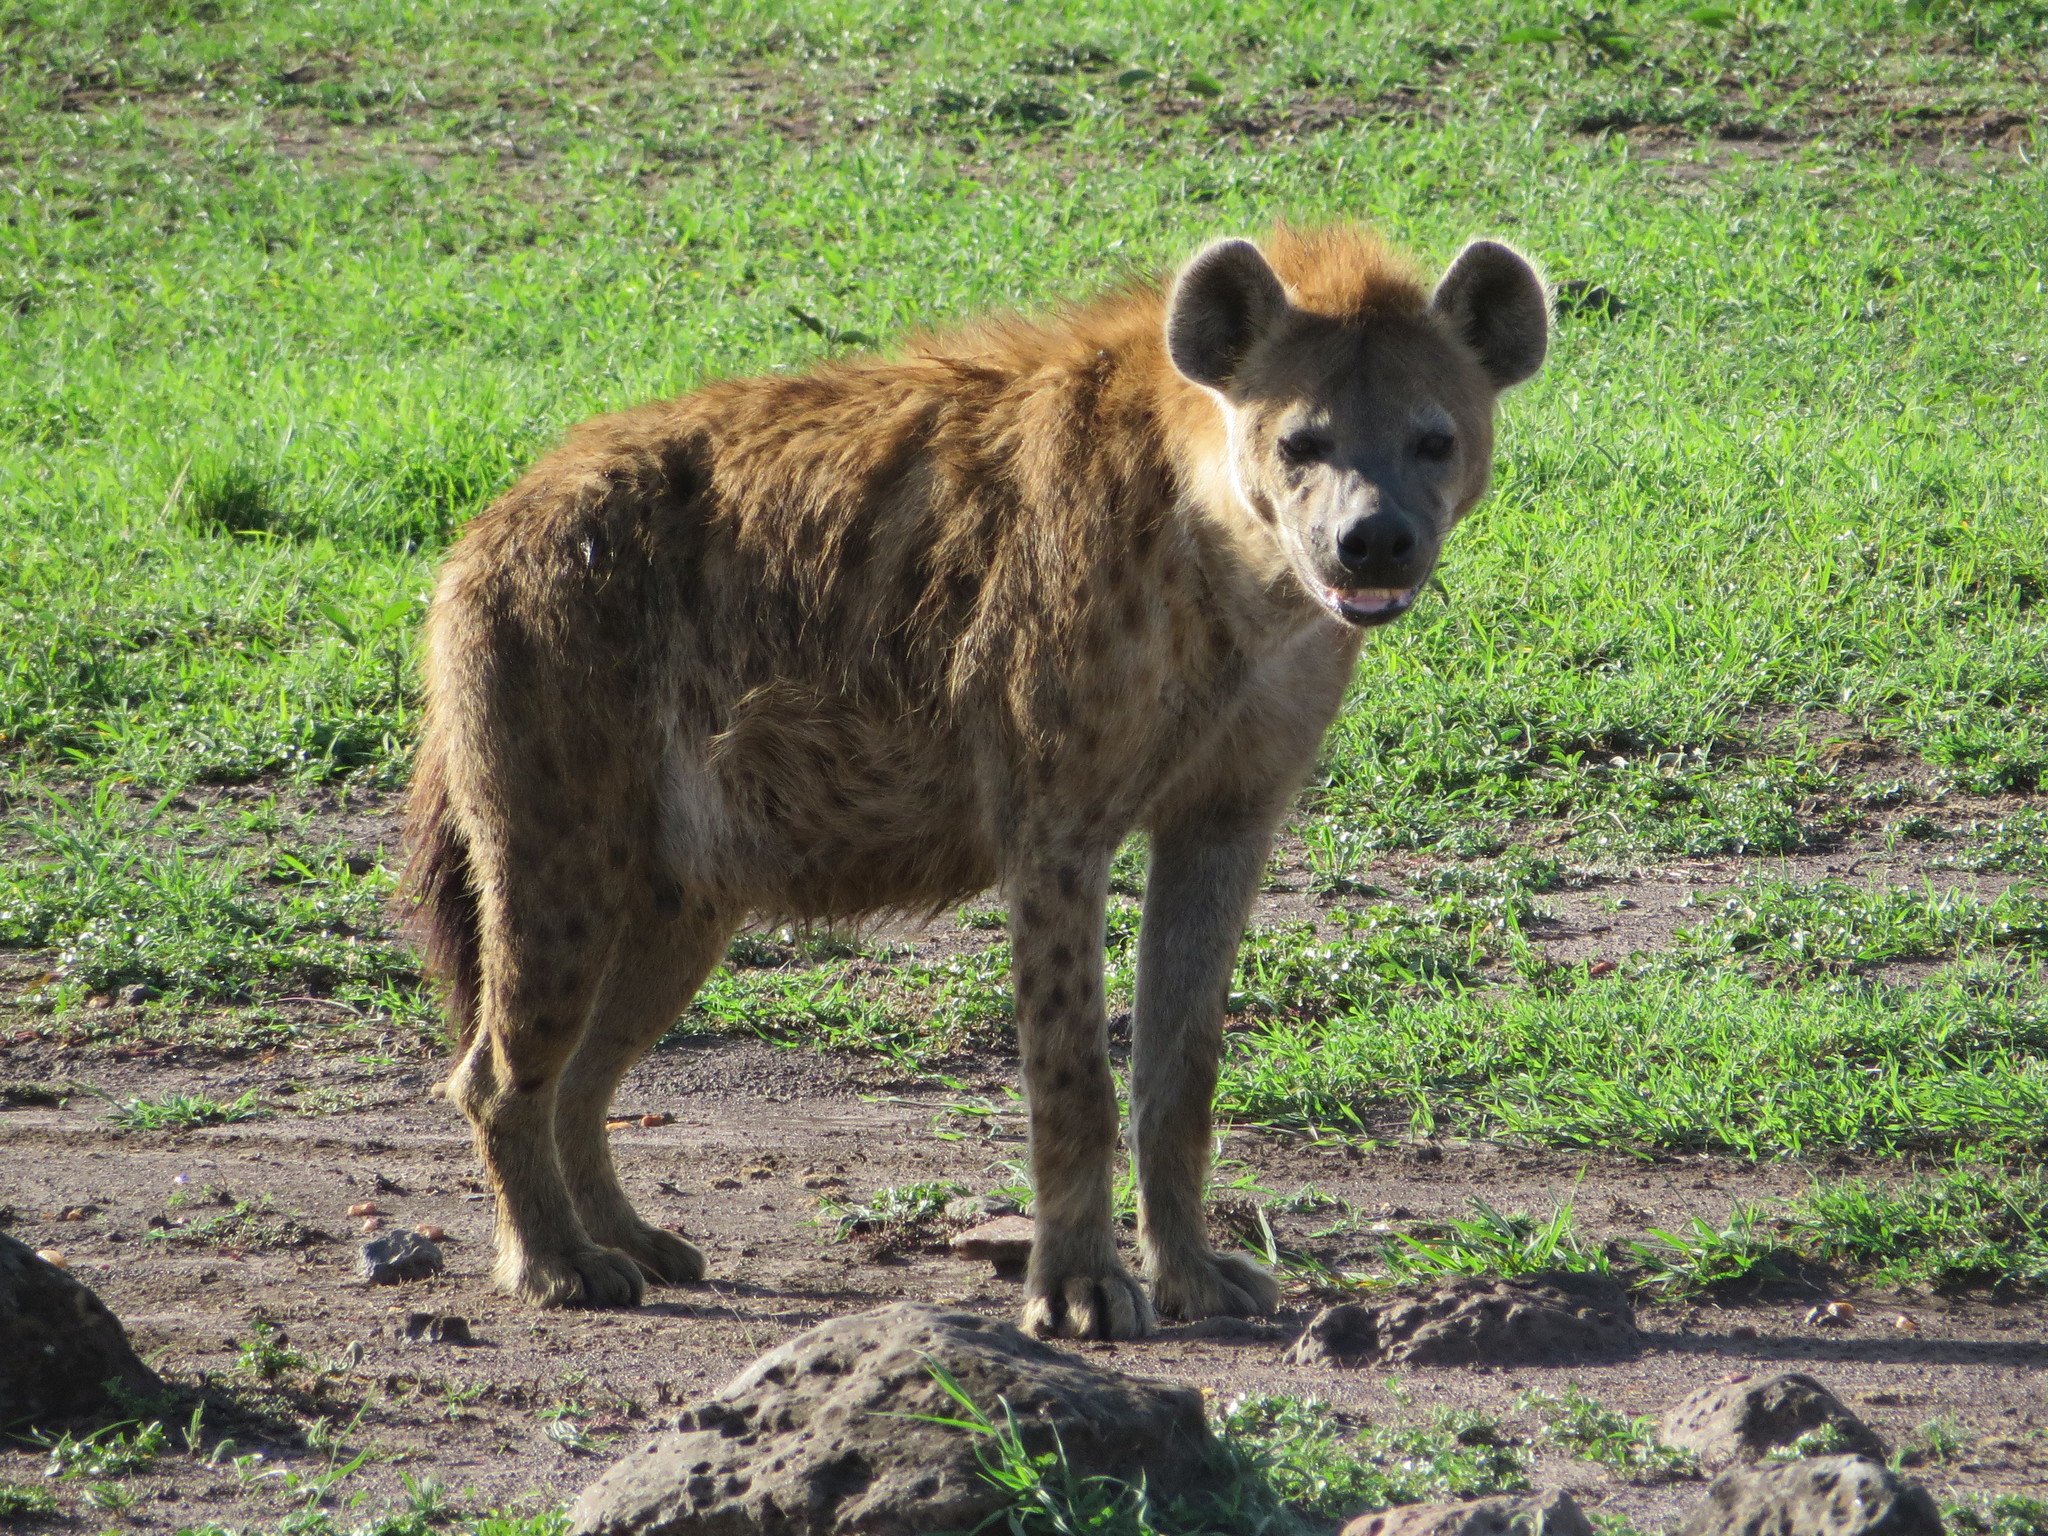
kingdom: Animalia
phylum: Chordata
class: Mammalia
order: Carnivora
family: Hyaenidae
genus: Crocuta
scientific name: Crocuta crocuta
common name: Spotted hyaena
